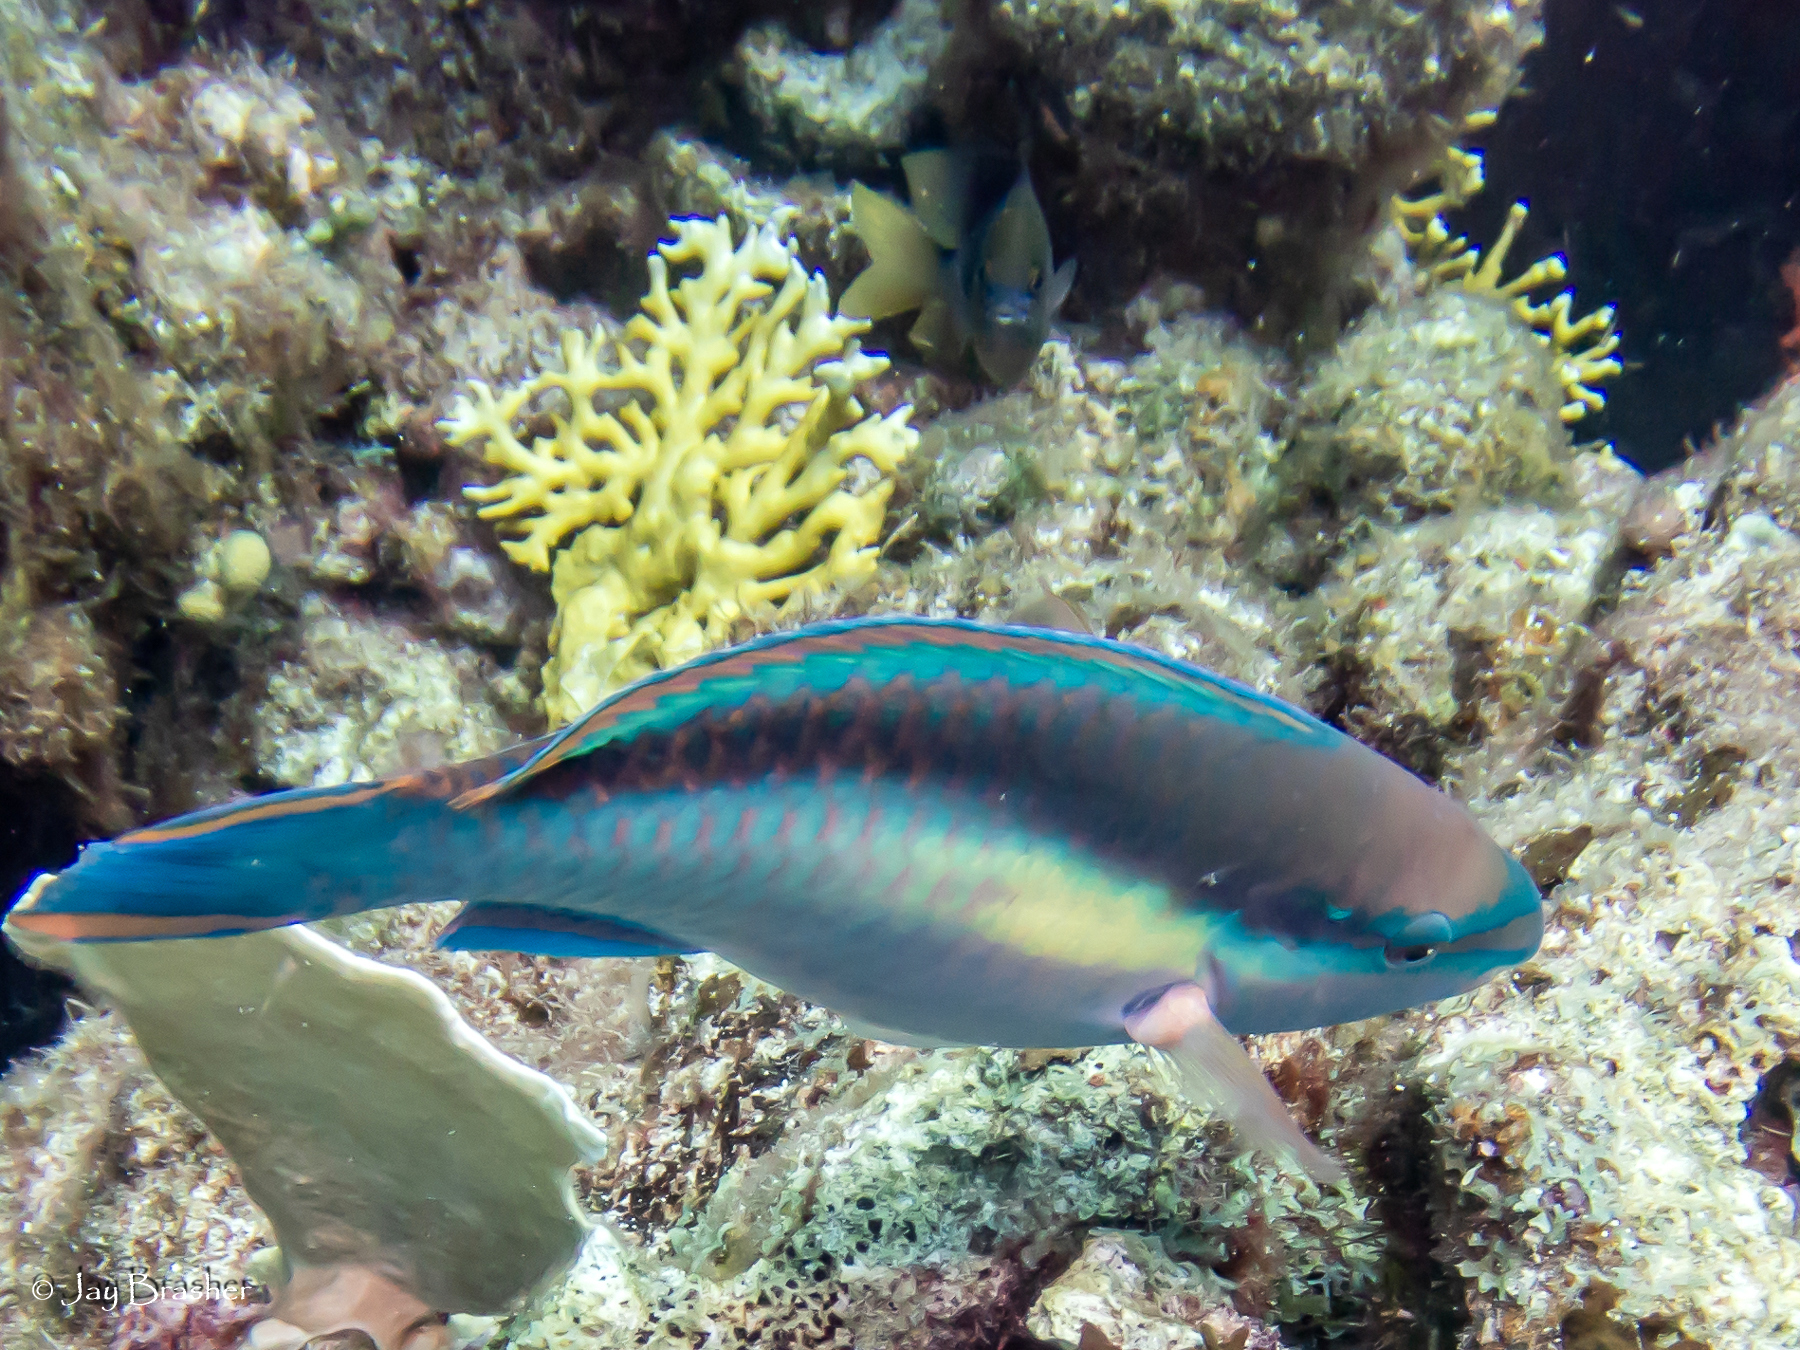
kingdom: Animalia
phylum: Chordata
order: Perciformes
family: Pomacentridae
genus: Stegastes
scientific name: Stegastes planifrons
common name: Threespot damselfish
